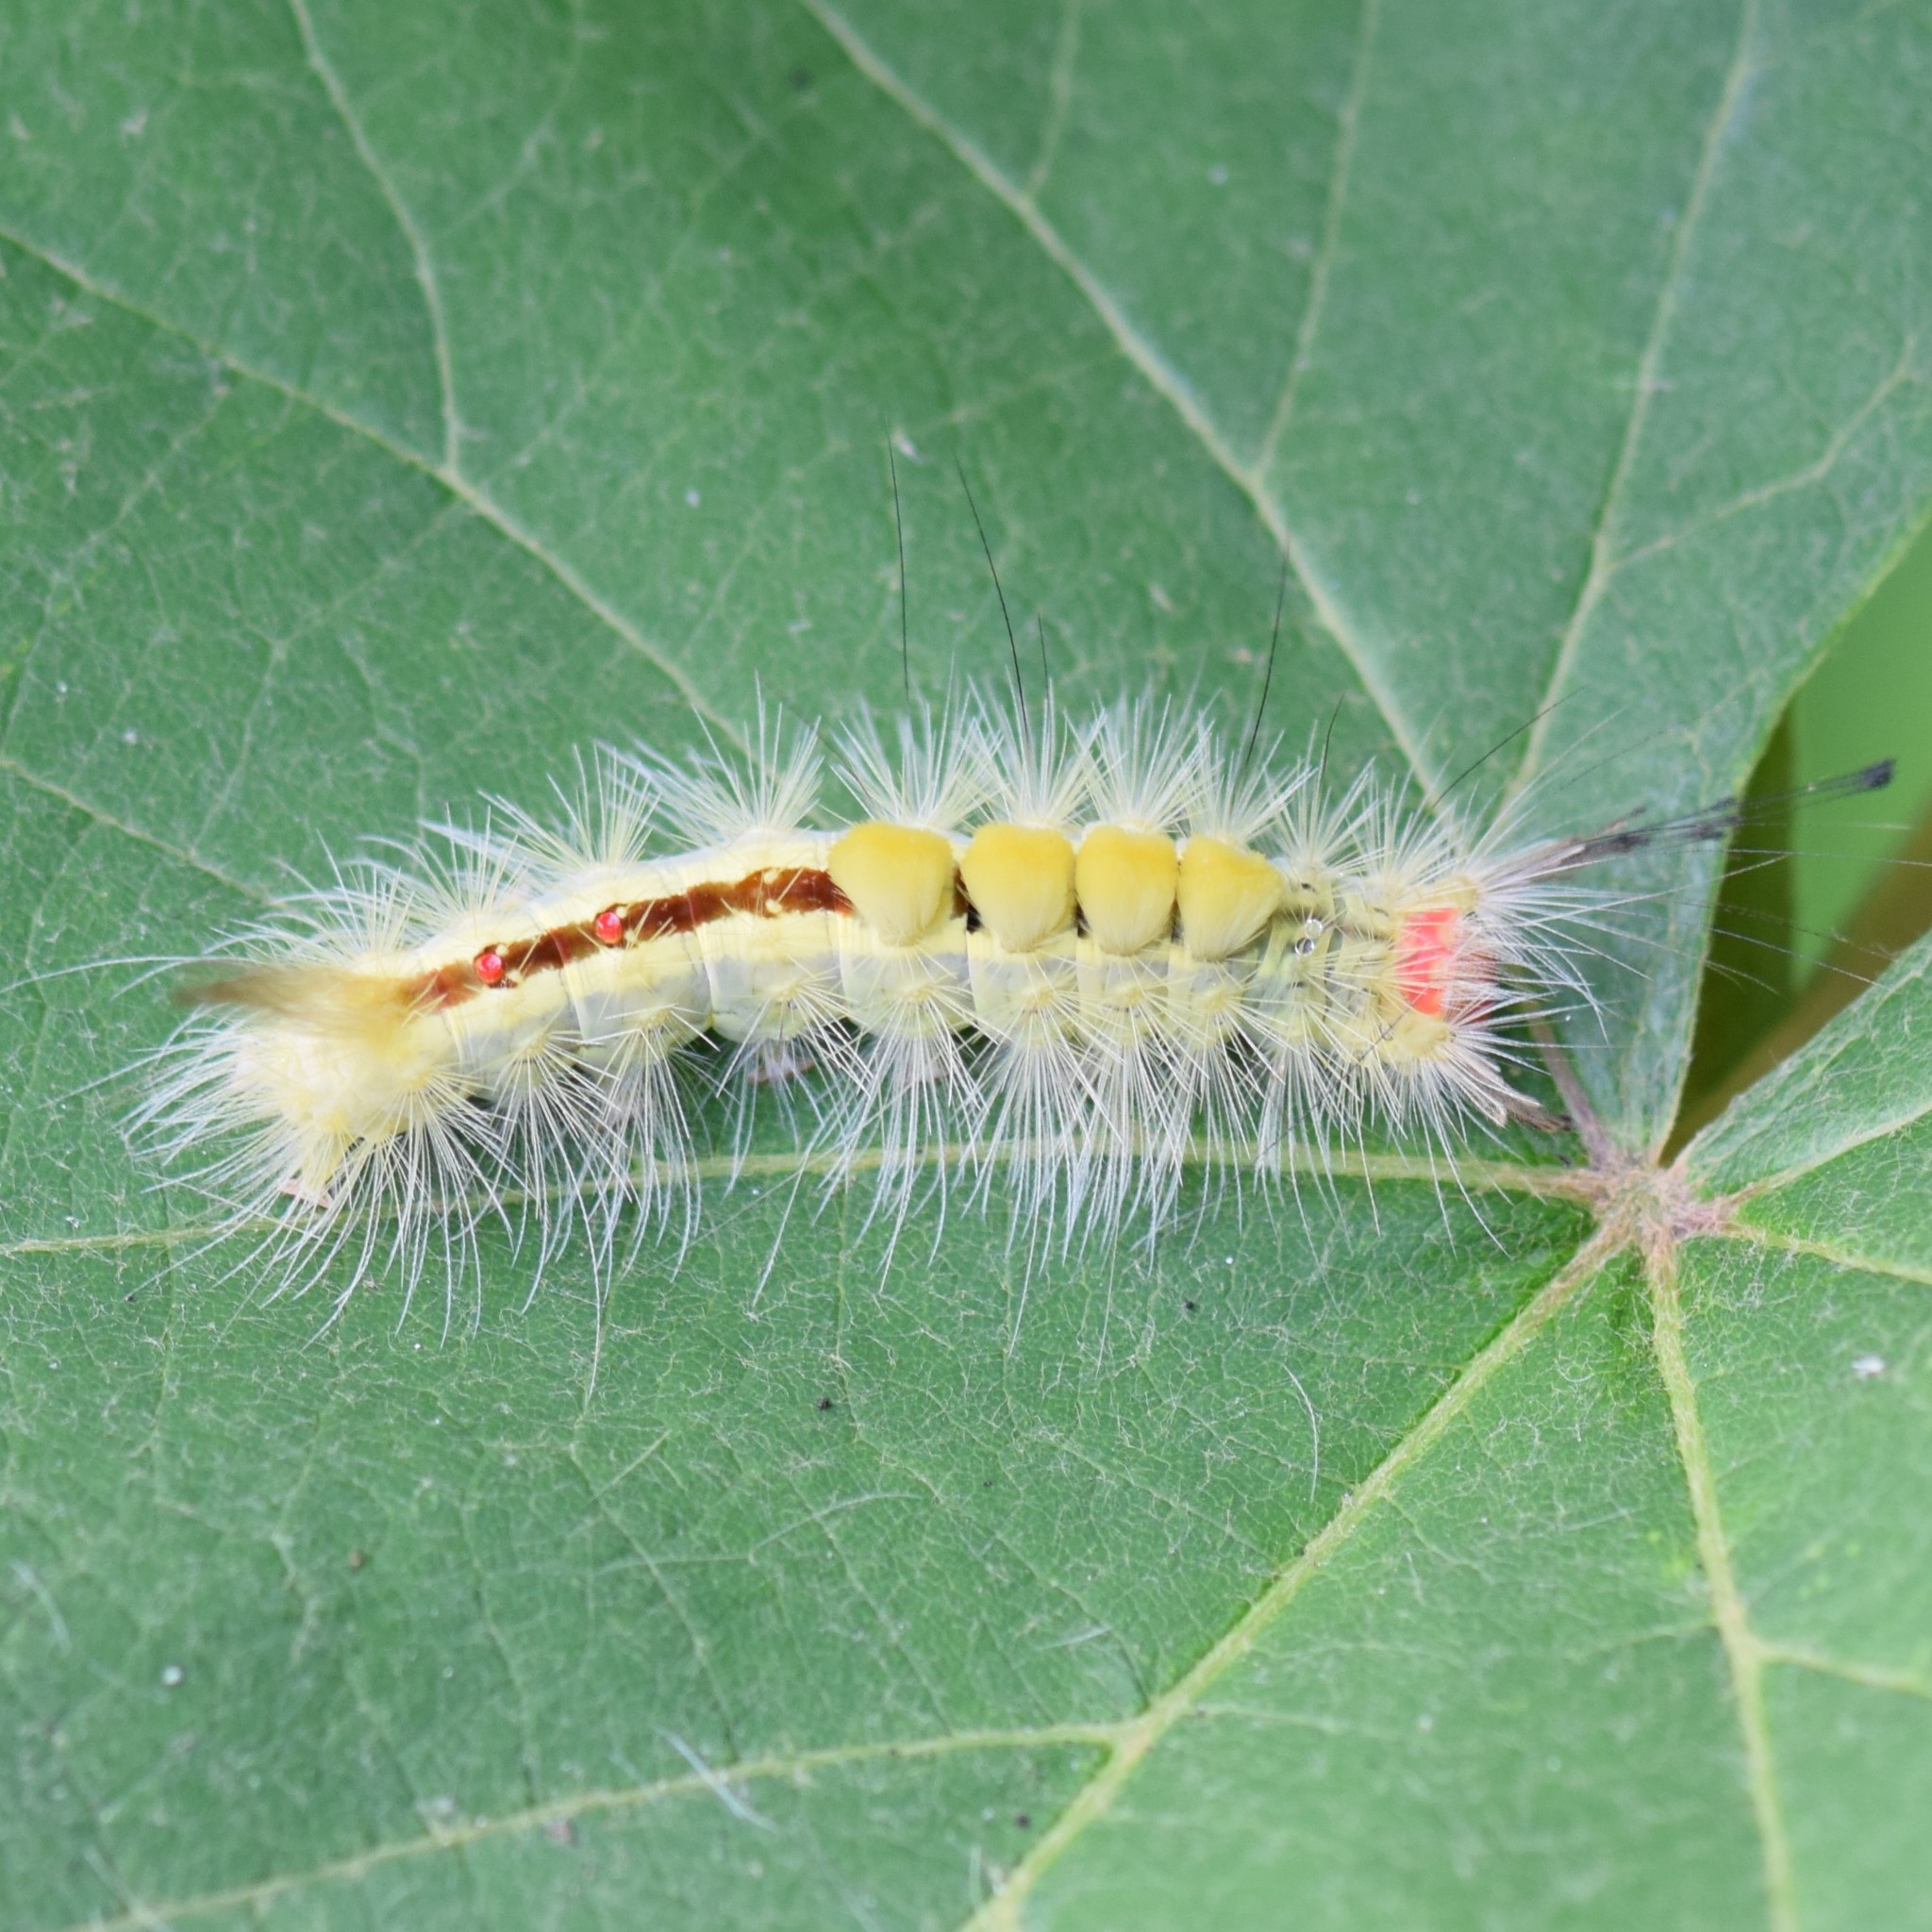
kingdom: Animalia
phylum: Arthropoda
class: Insecta
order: Lepidoptera
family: Erebidae
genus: Orgyia
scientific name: Orgyia leucostigma
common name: White-marked tussock moth
